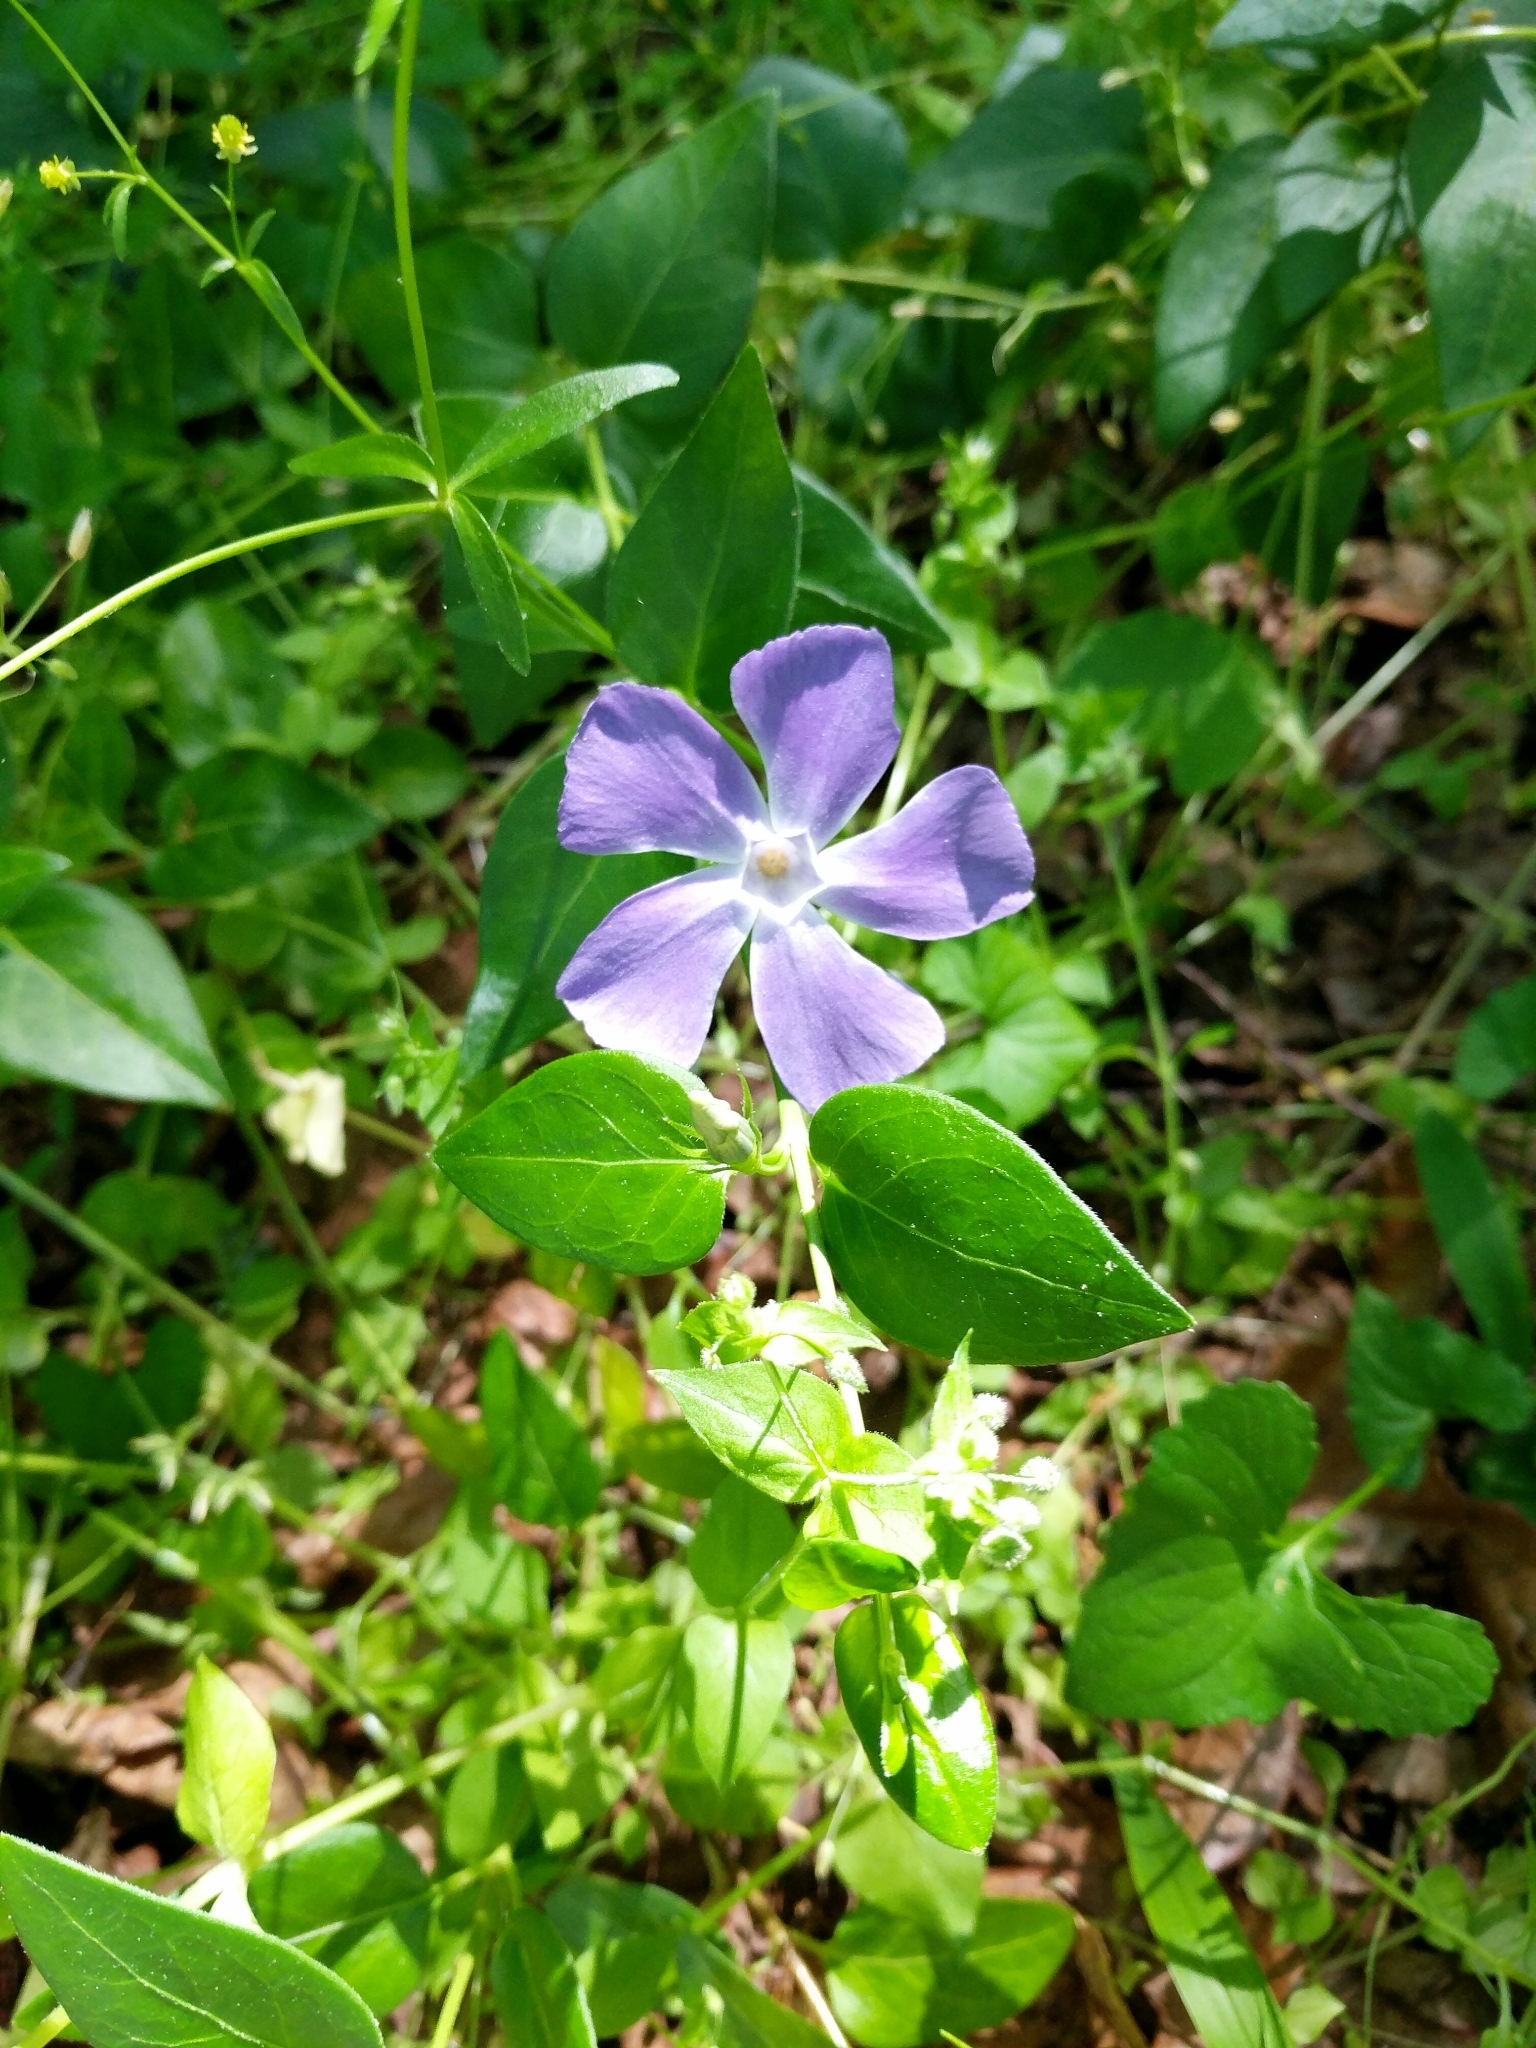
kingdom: Plantae
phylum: Tracheophyta
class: Magnoliopsida
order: Gentianales
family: Apocynaceae
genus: Vinca
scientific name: Vinca major
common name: Greater periwinkle
